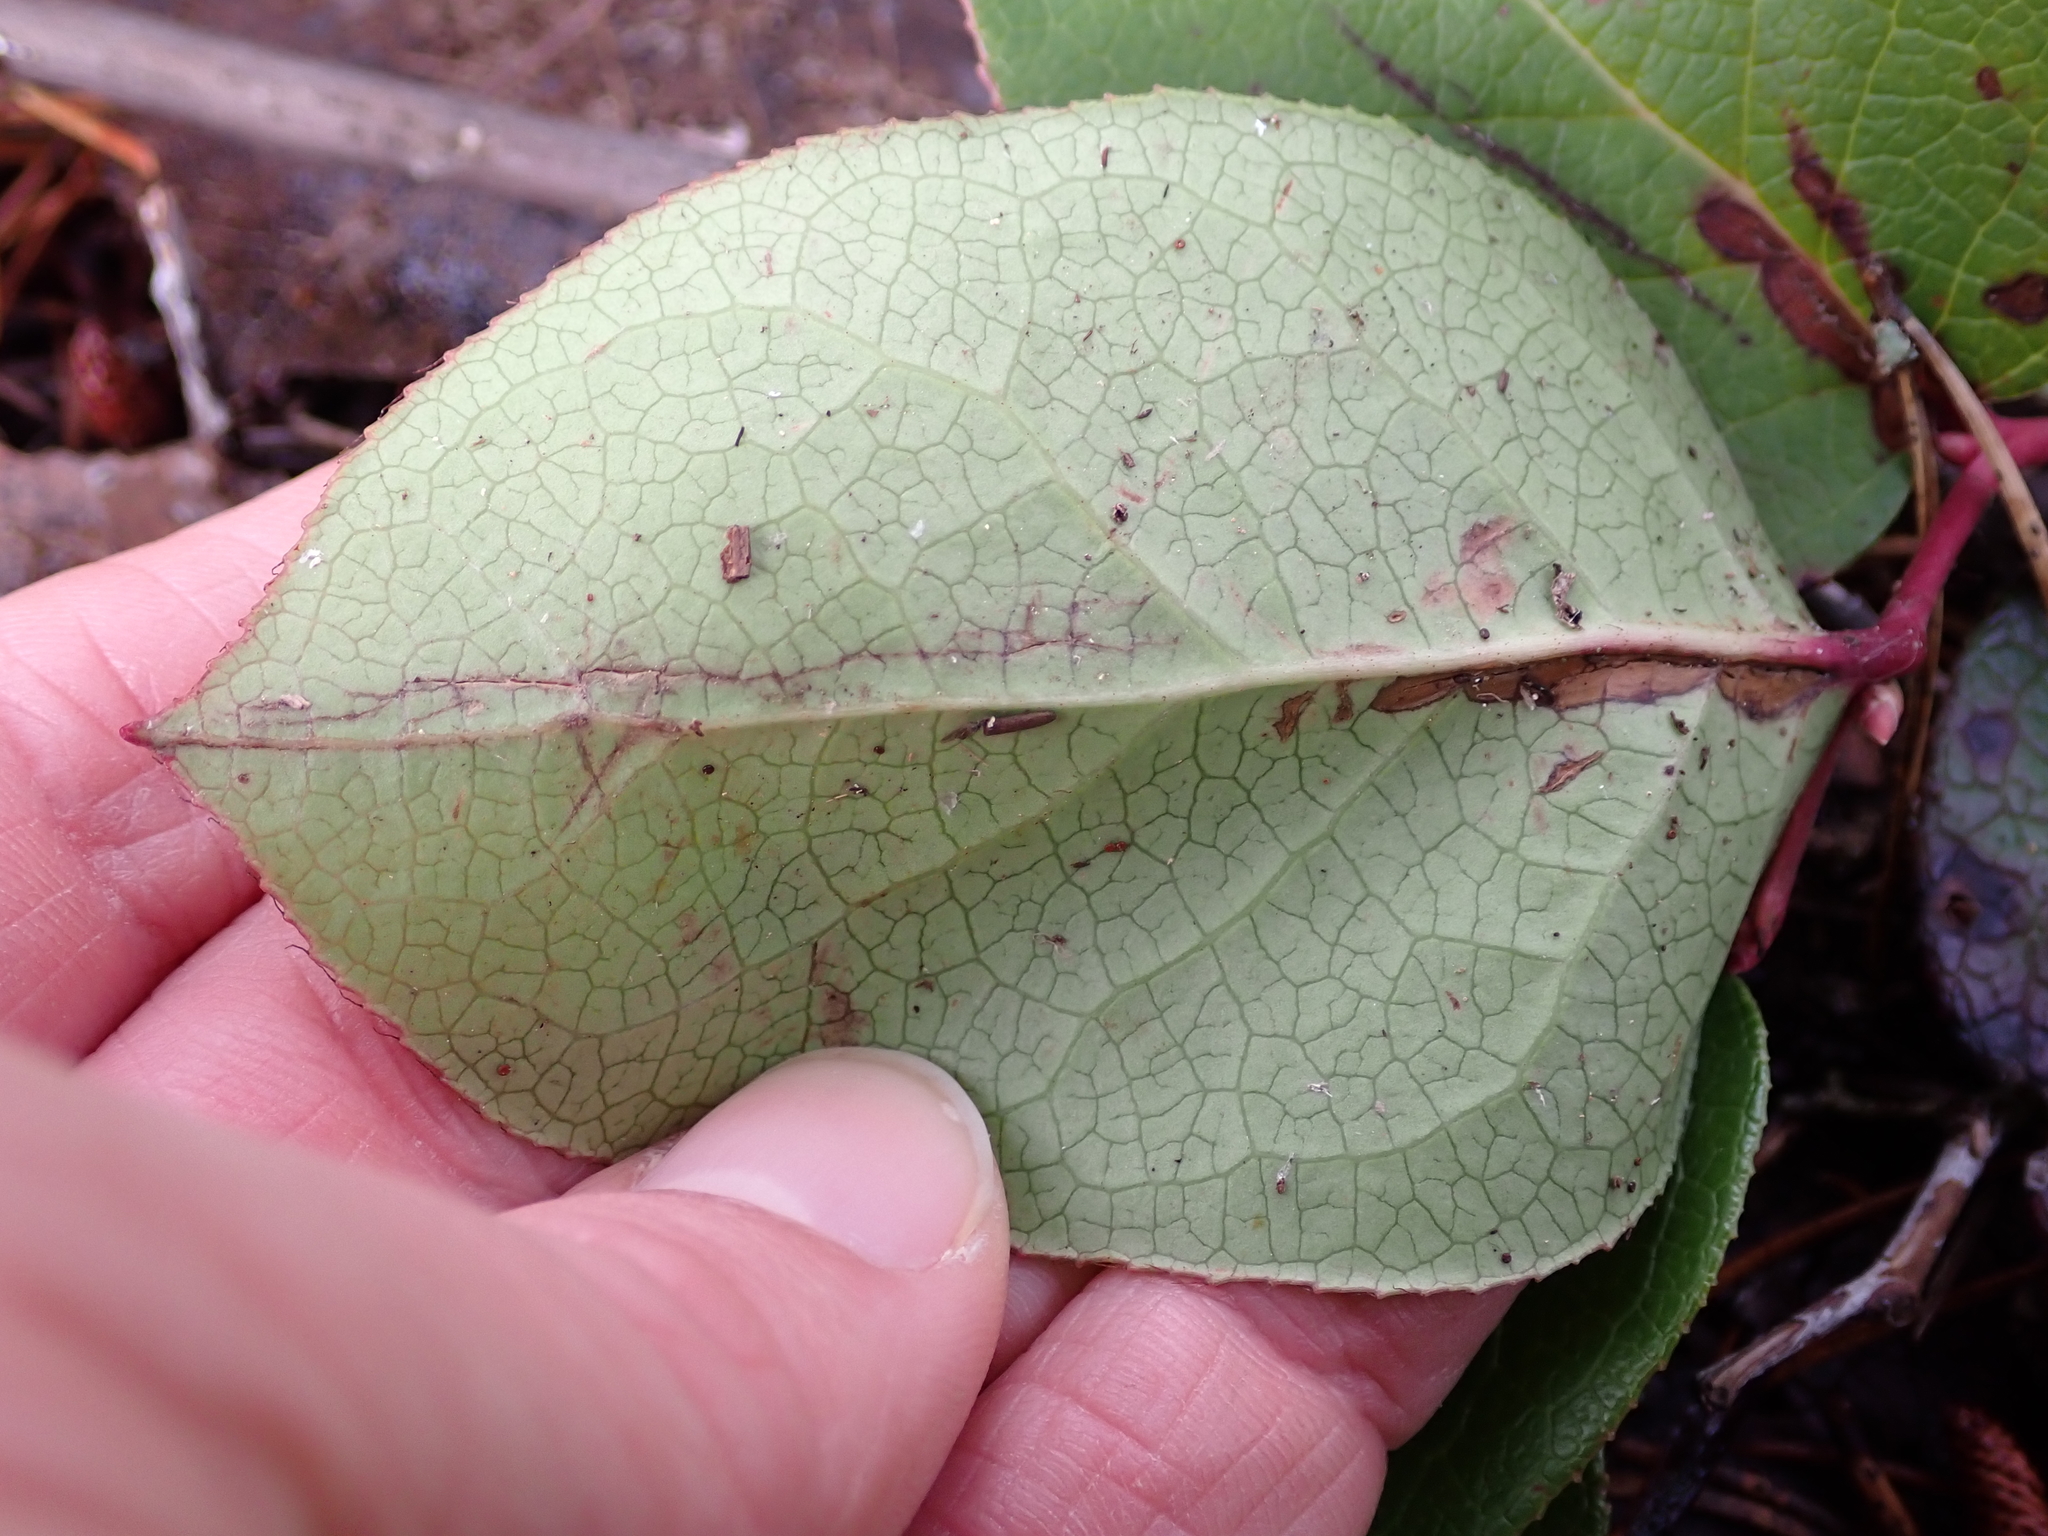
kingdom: Plantae
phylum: Tracheophyta
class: Magnoliopsida
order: Ericales
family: Ericaceae
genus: Gaultheria
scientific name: Gaultheria shallon
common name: Shallon
